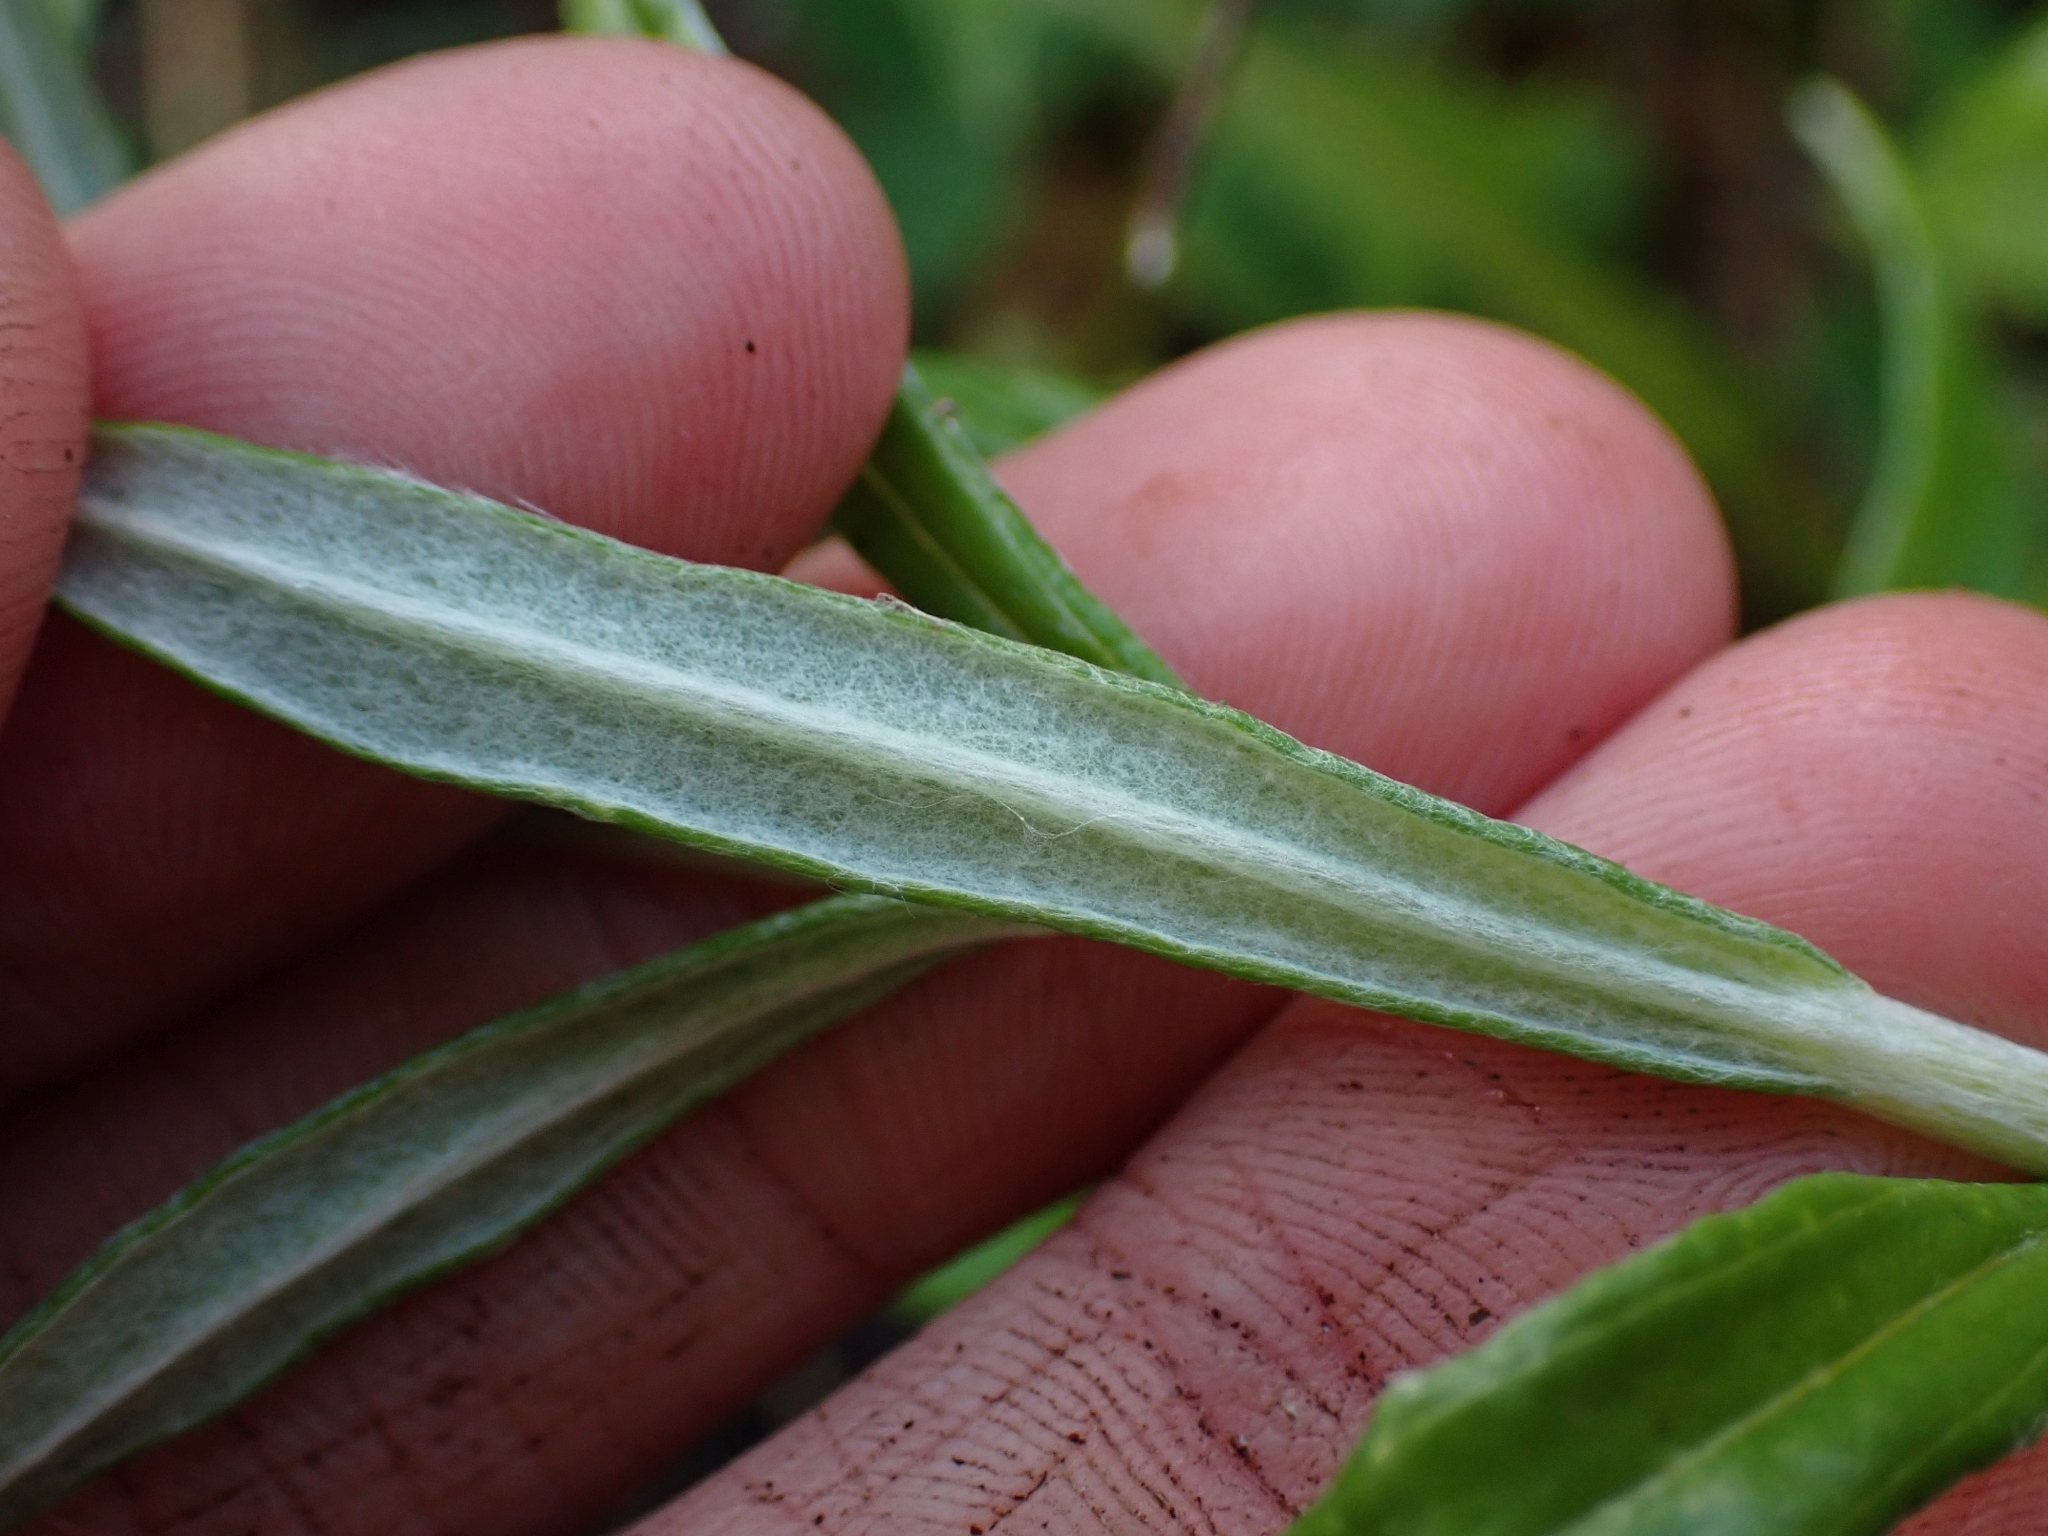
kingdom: Plantae
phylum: Tracheophyta
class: Magnoliopsida
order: Asterales
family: Asteraceae
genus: Anaphalis
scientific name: Anaphalis margaritacea
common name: Pearly everlasting
